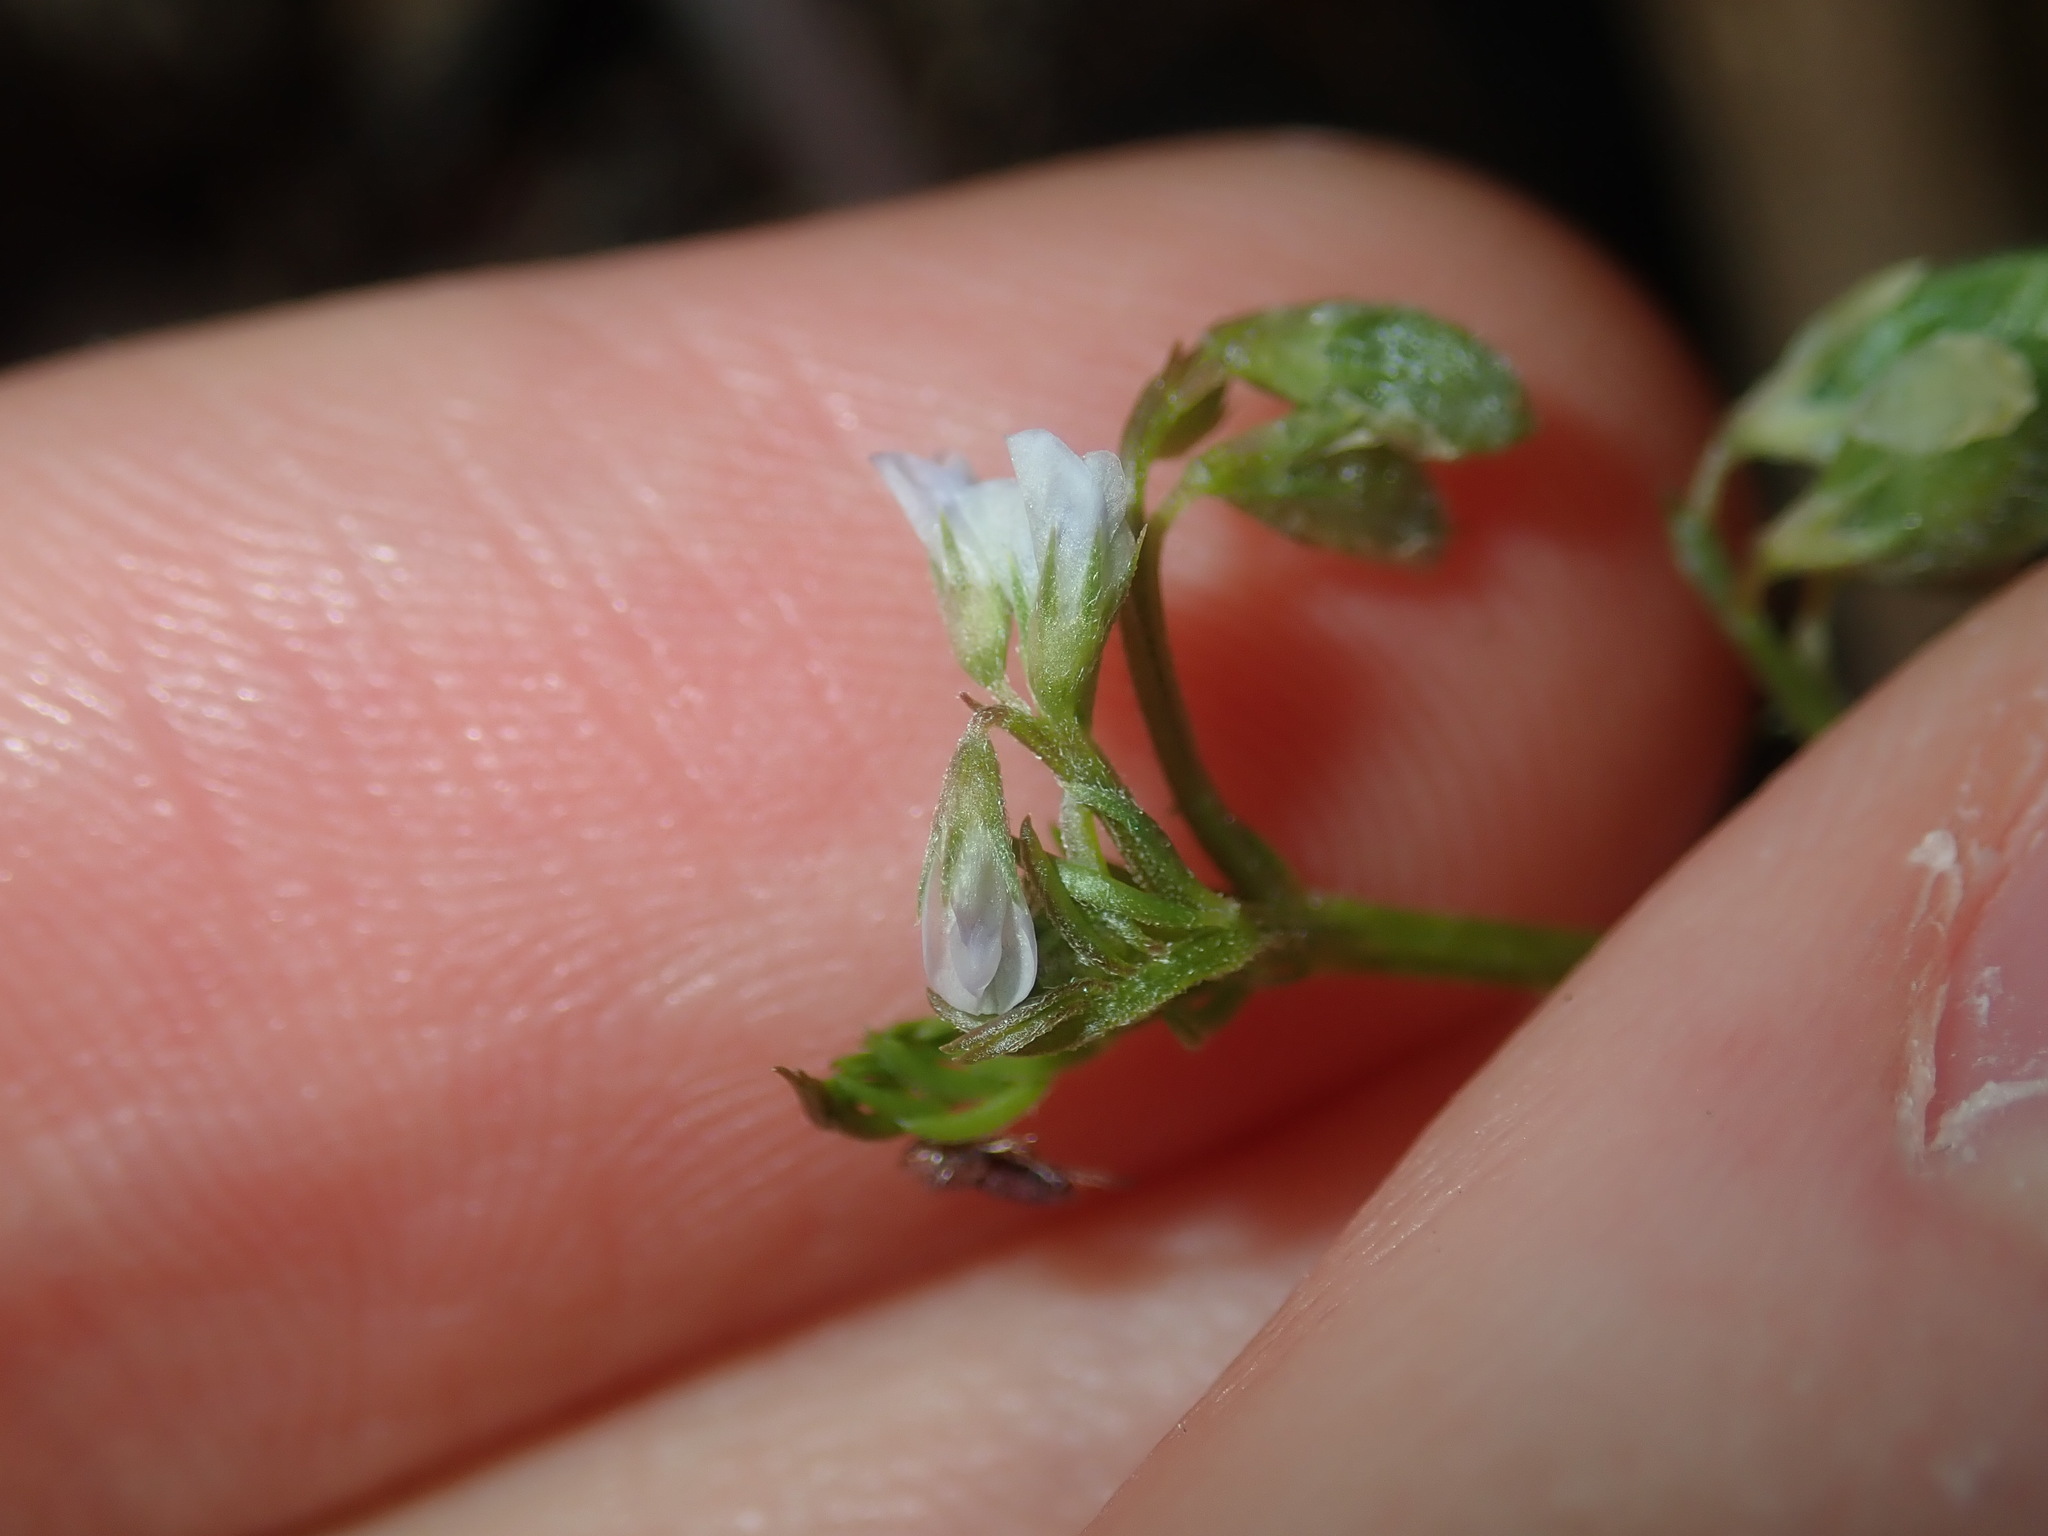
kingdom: Plantae
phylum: Tracheophyta
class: Magnoliopsida
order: Fabales
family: Fabaceae
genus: Vicia
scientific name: Vicia hirsuta
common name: Tiny vetch
